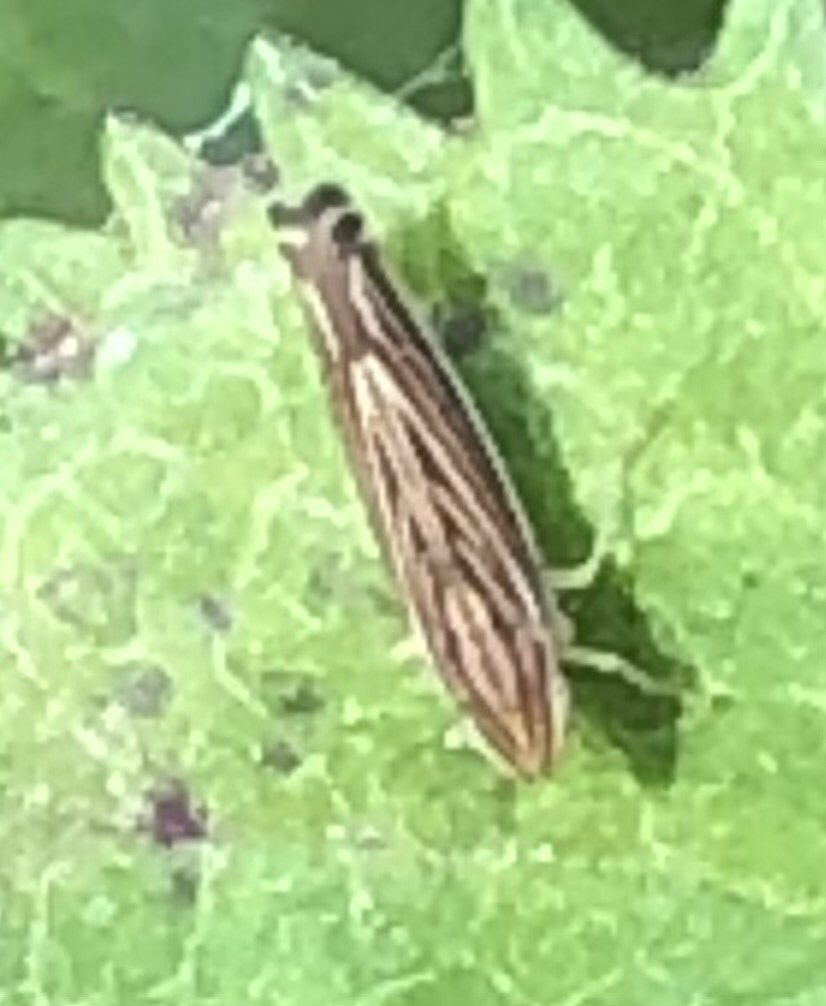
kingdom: Animalia
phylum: Arthropoda
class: Insecta
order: Hemiptera
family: Cicadellidae
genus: Sibovia
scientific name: Sibovia occatoria
